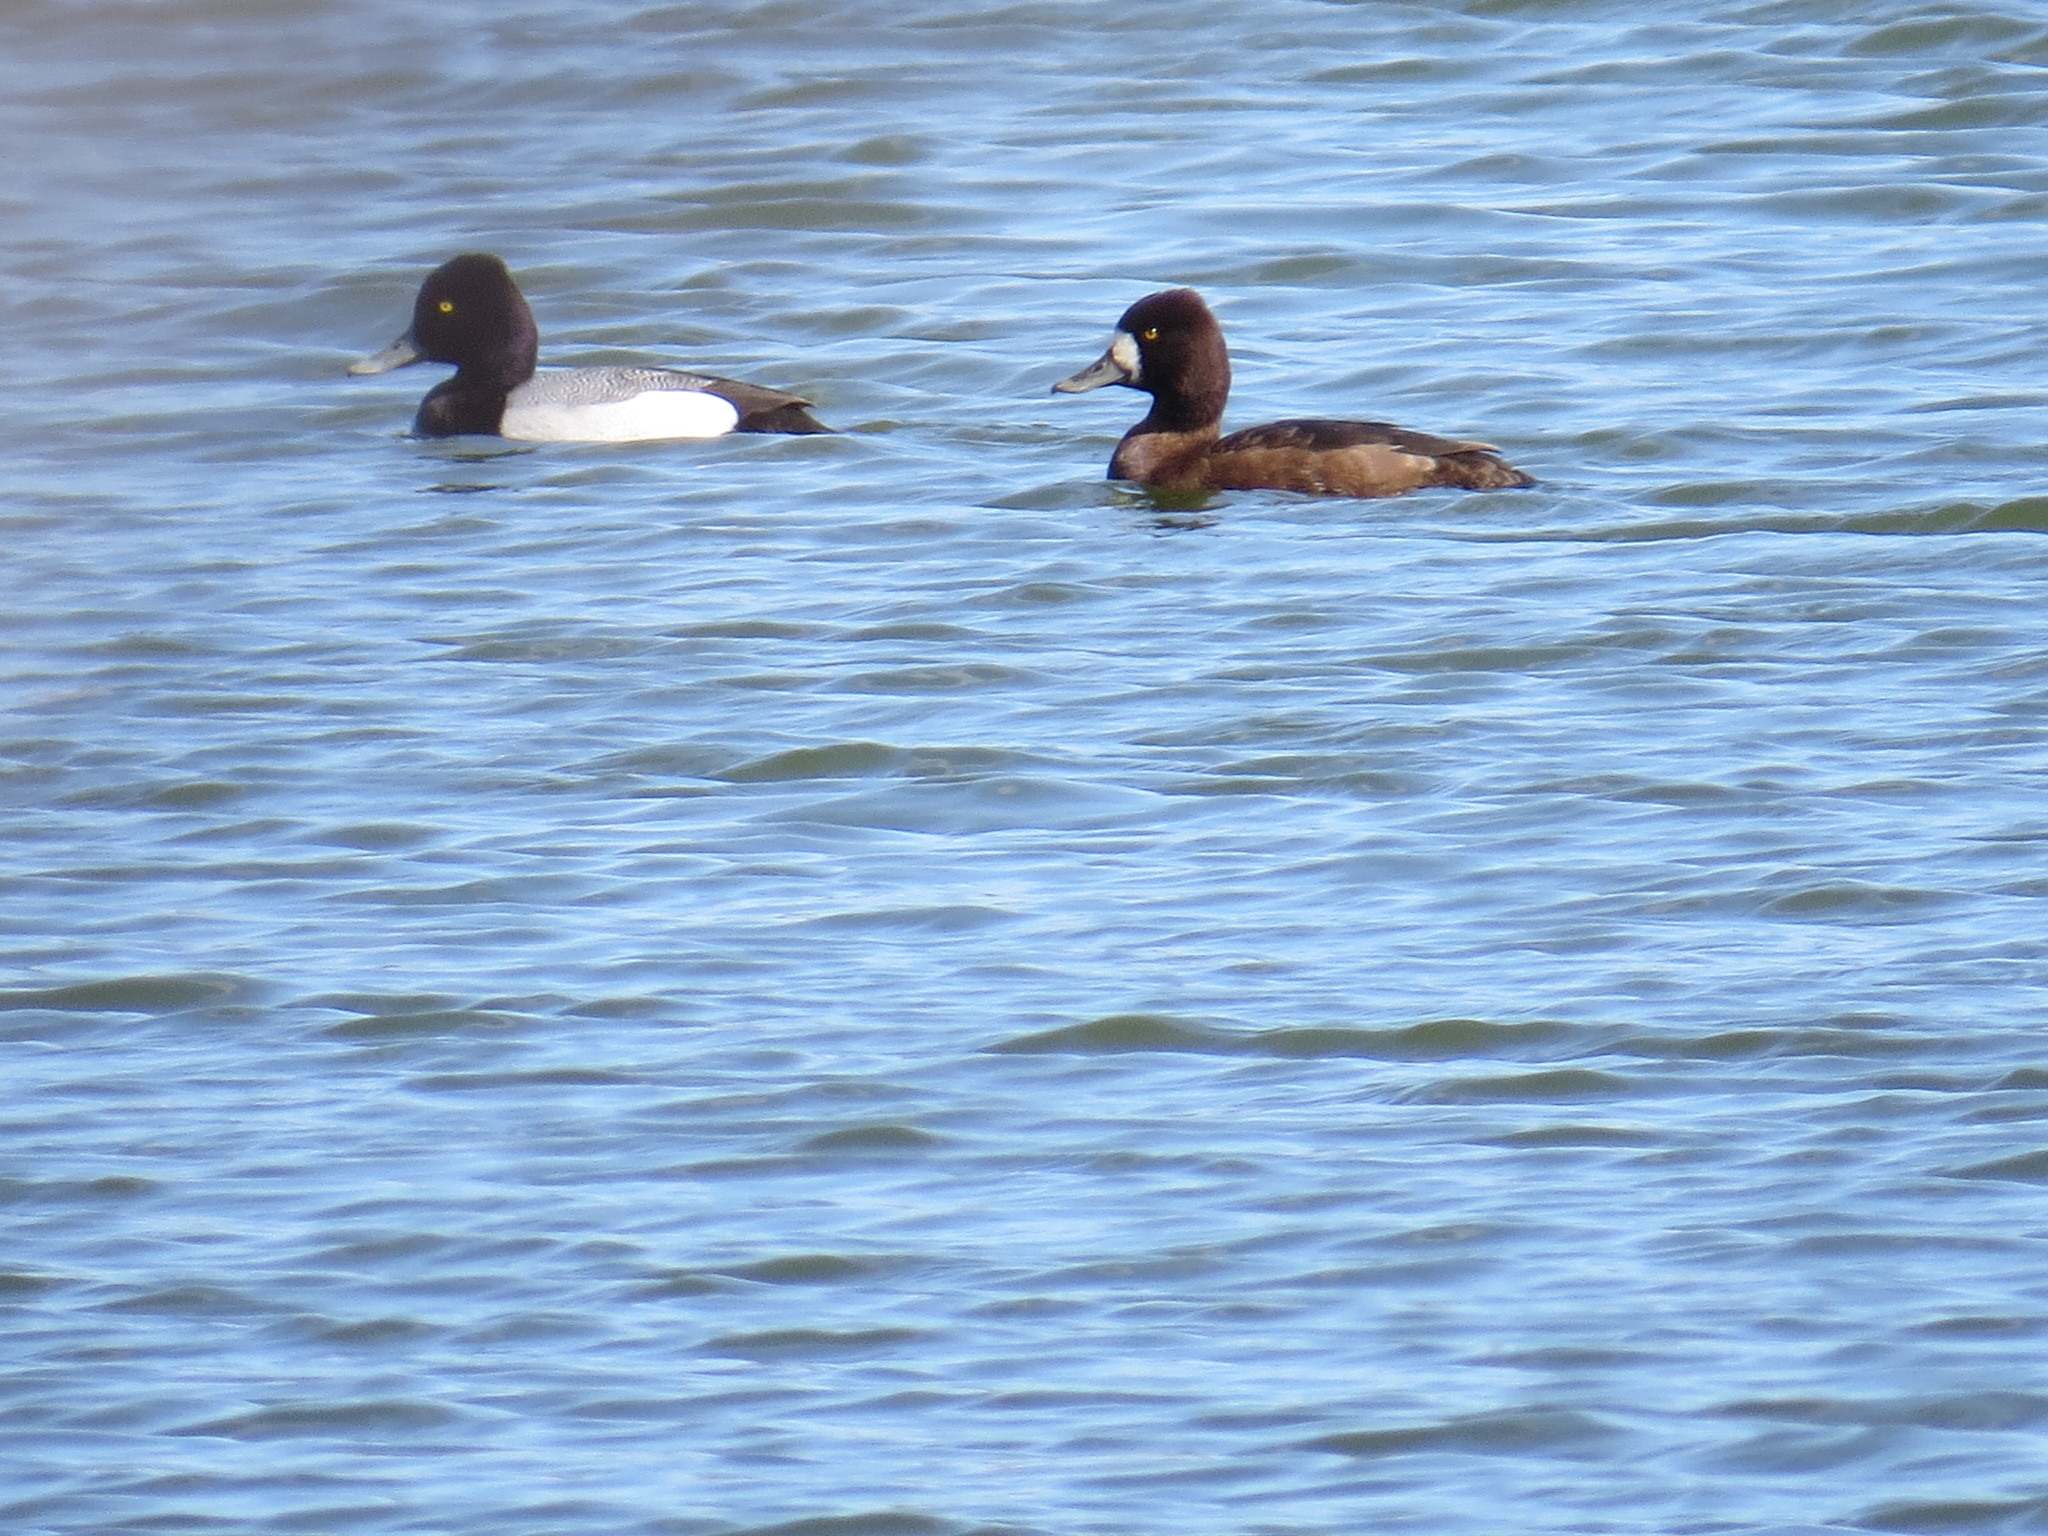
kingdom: Animalia
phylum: Chordata
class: Aves
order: Anseriformes
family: Anatidae
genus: Aythya
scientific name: Aythya affinis
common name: Lesser scaup
